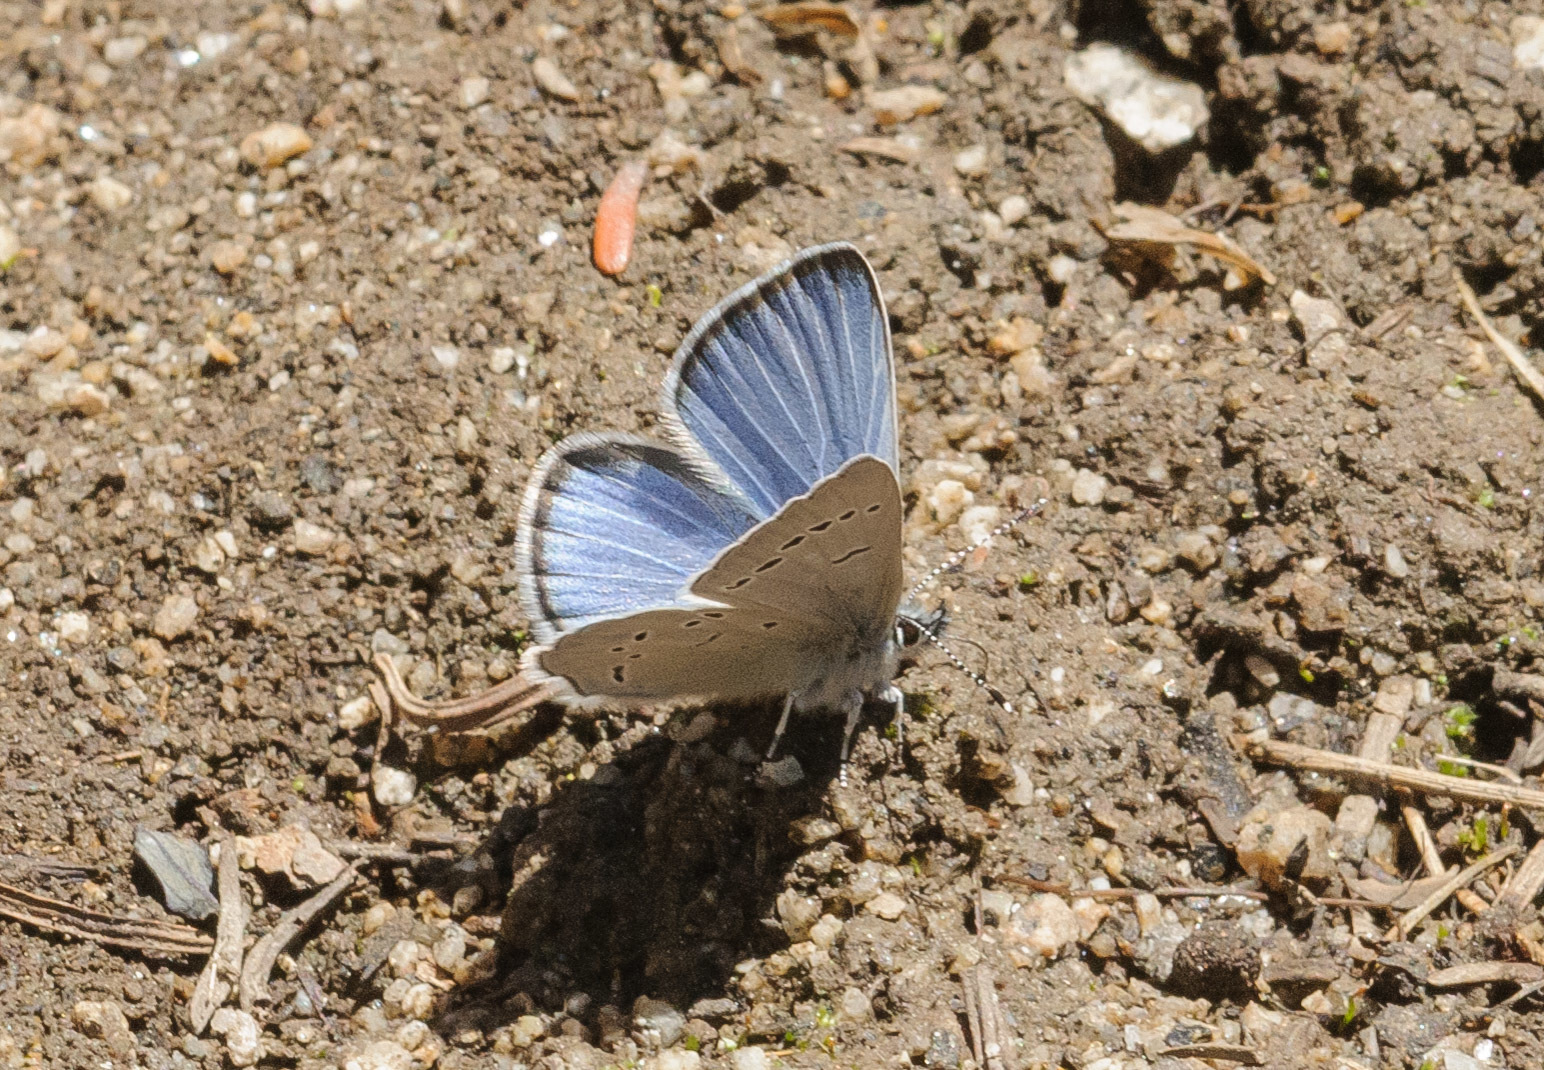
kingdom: Animalia
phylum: Arthropoda
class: Insecta
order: Lepidoptera
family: Lycaenidae
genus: Glaucopsyche
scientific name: Glaucopsyche lygdamus
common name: Silvery blue
